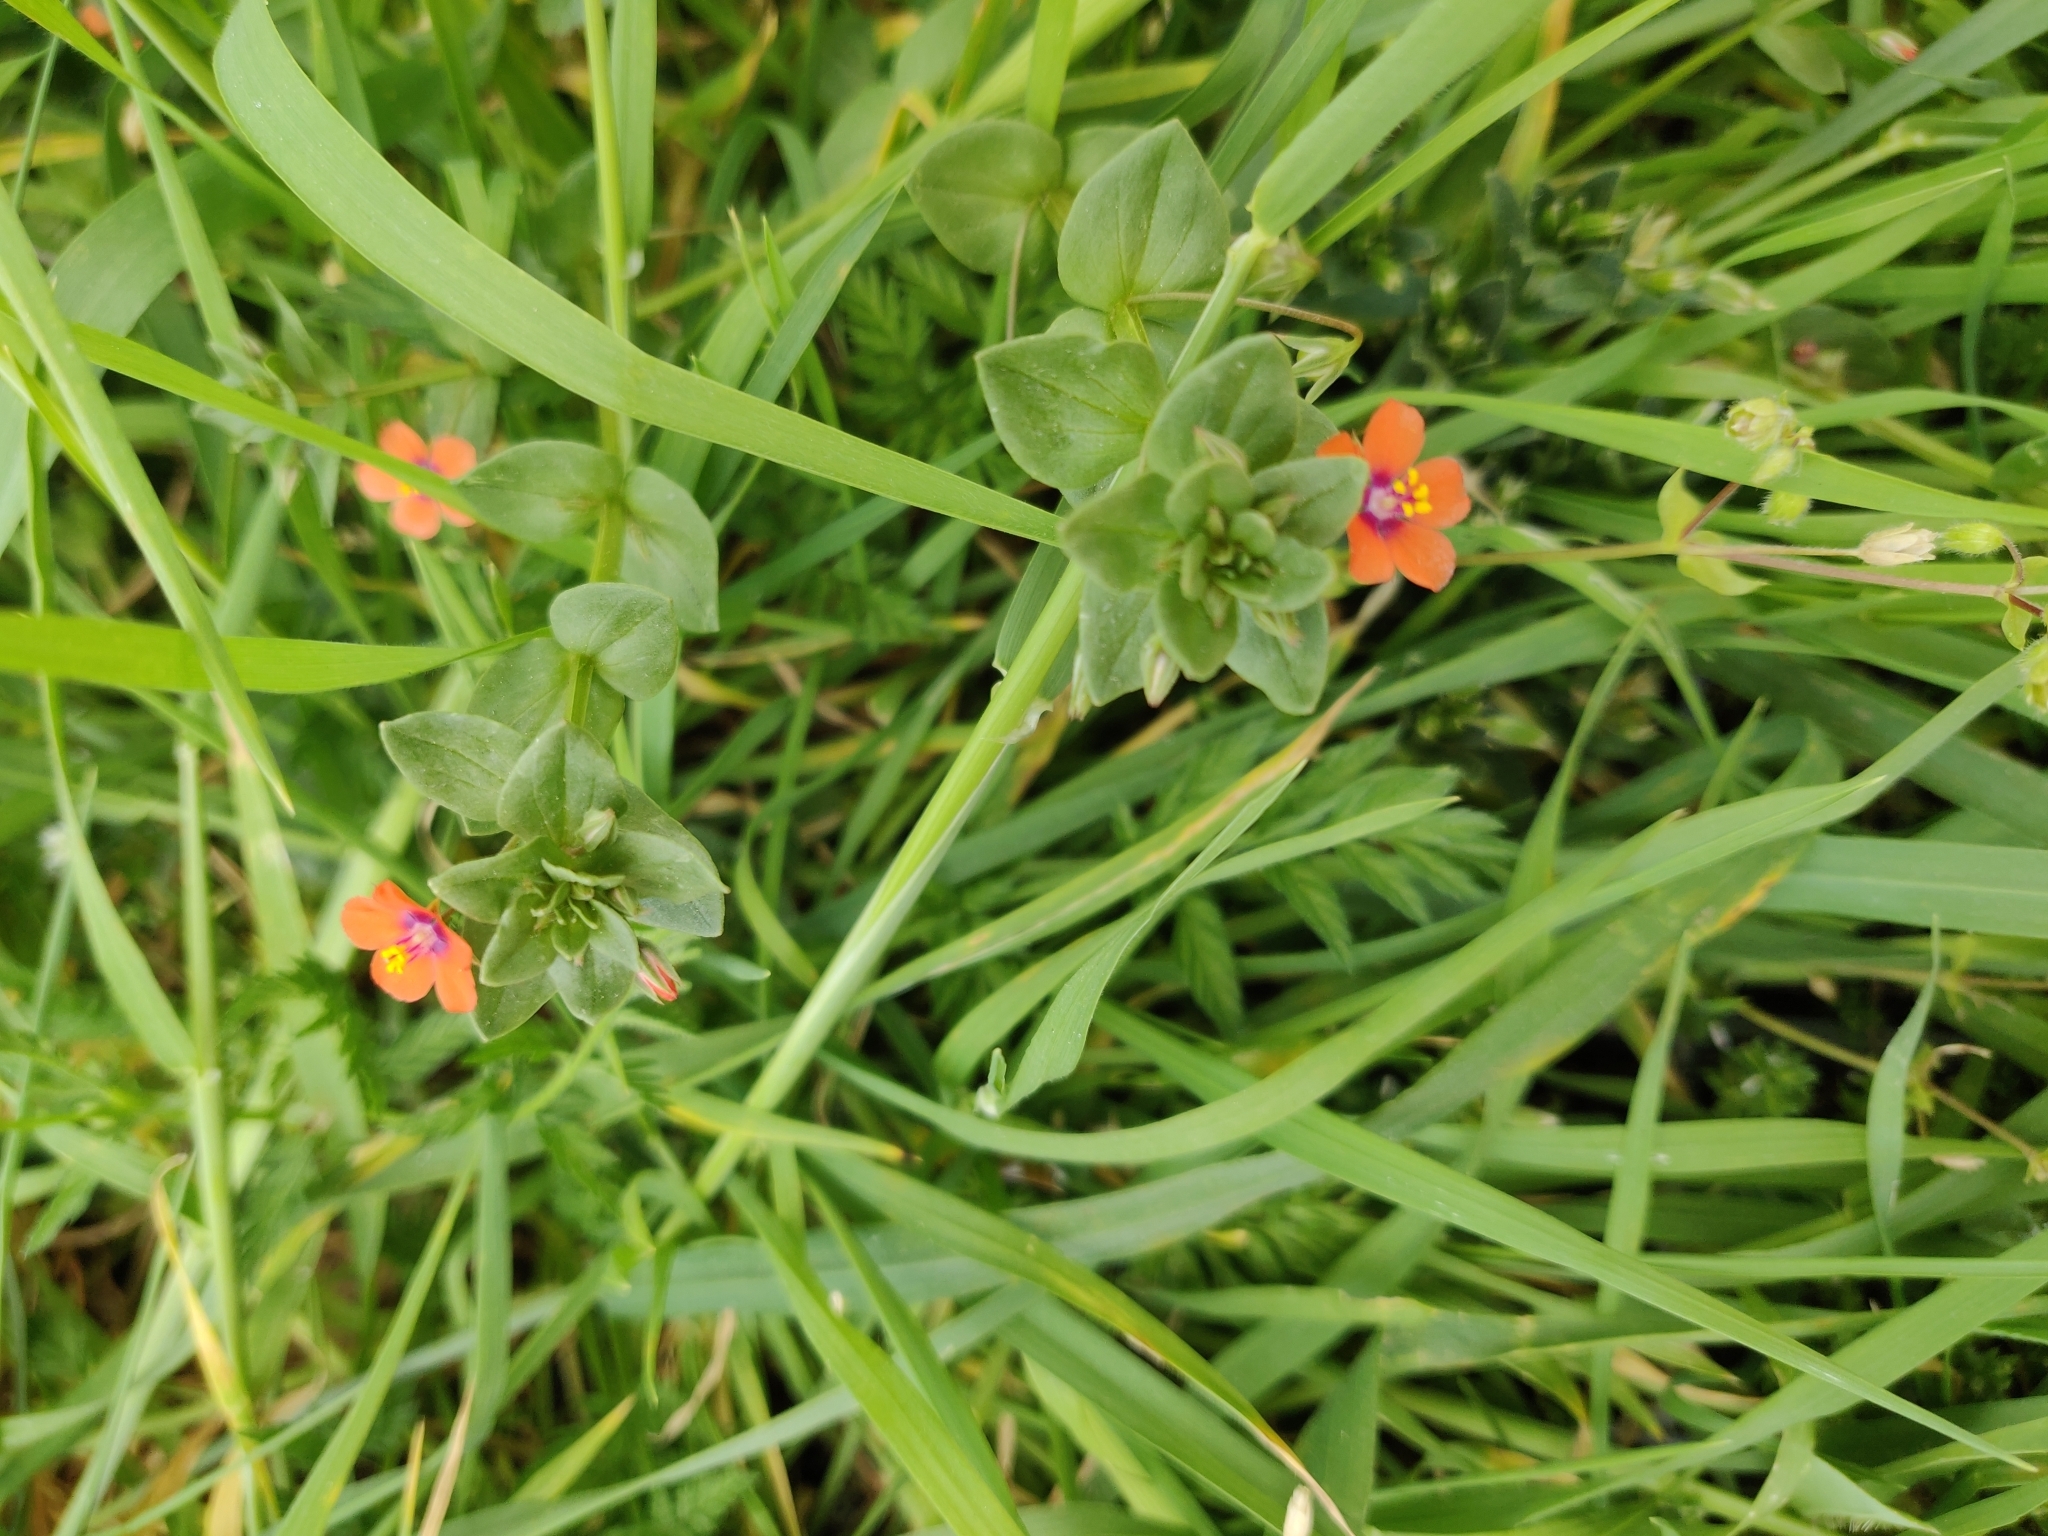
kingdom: Plantae
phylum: Tracheophyta
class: Magnoliopsida
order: Ericales
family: Primulaceae
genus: Lysimachia
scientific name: Lysimachia arvensis
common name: Scarlet pimpernel
